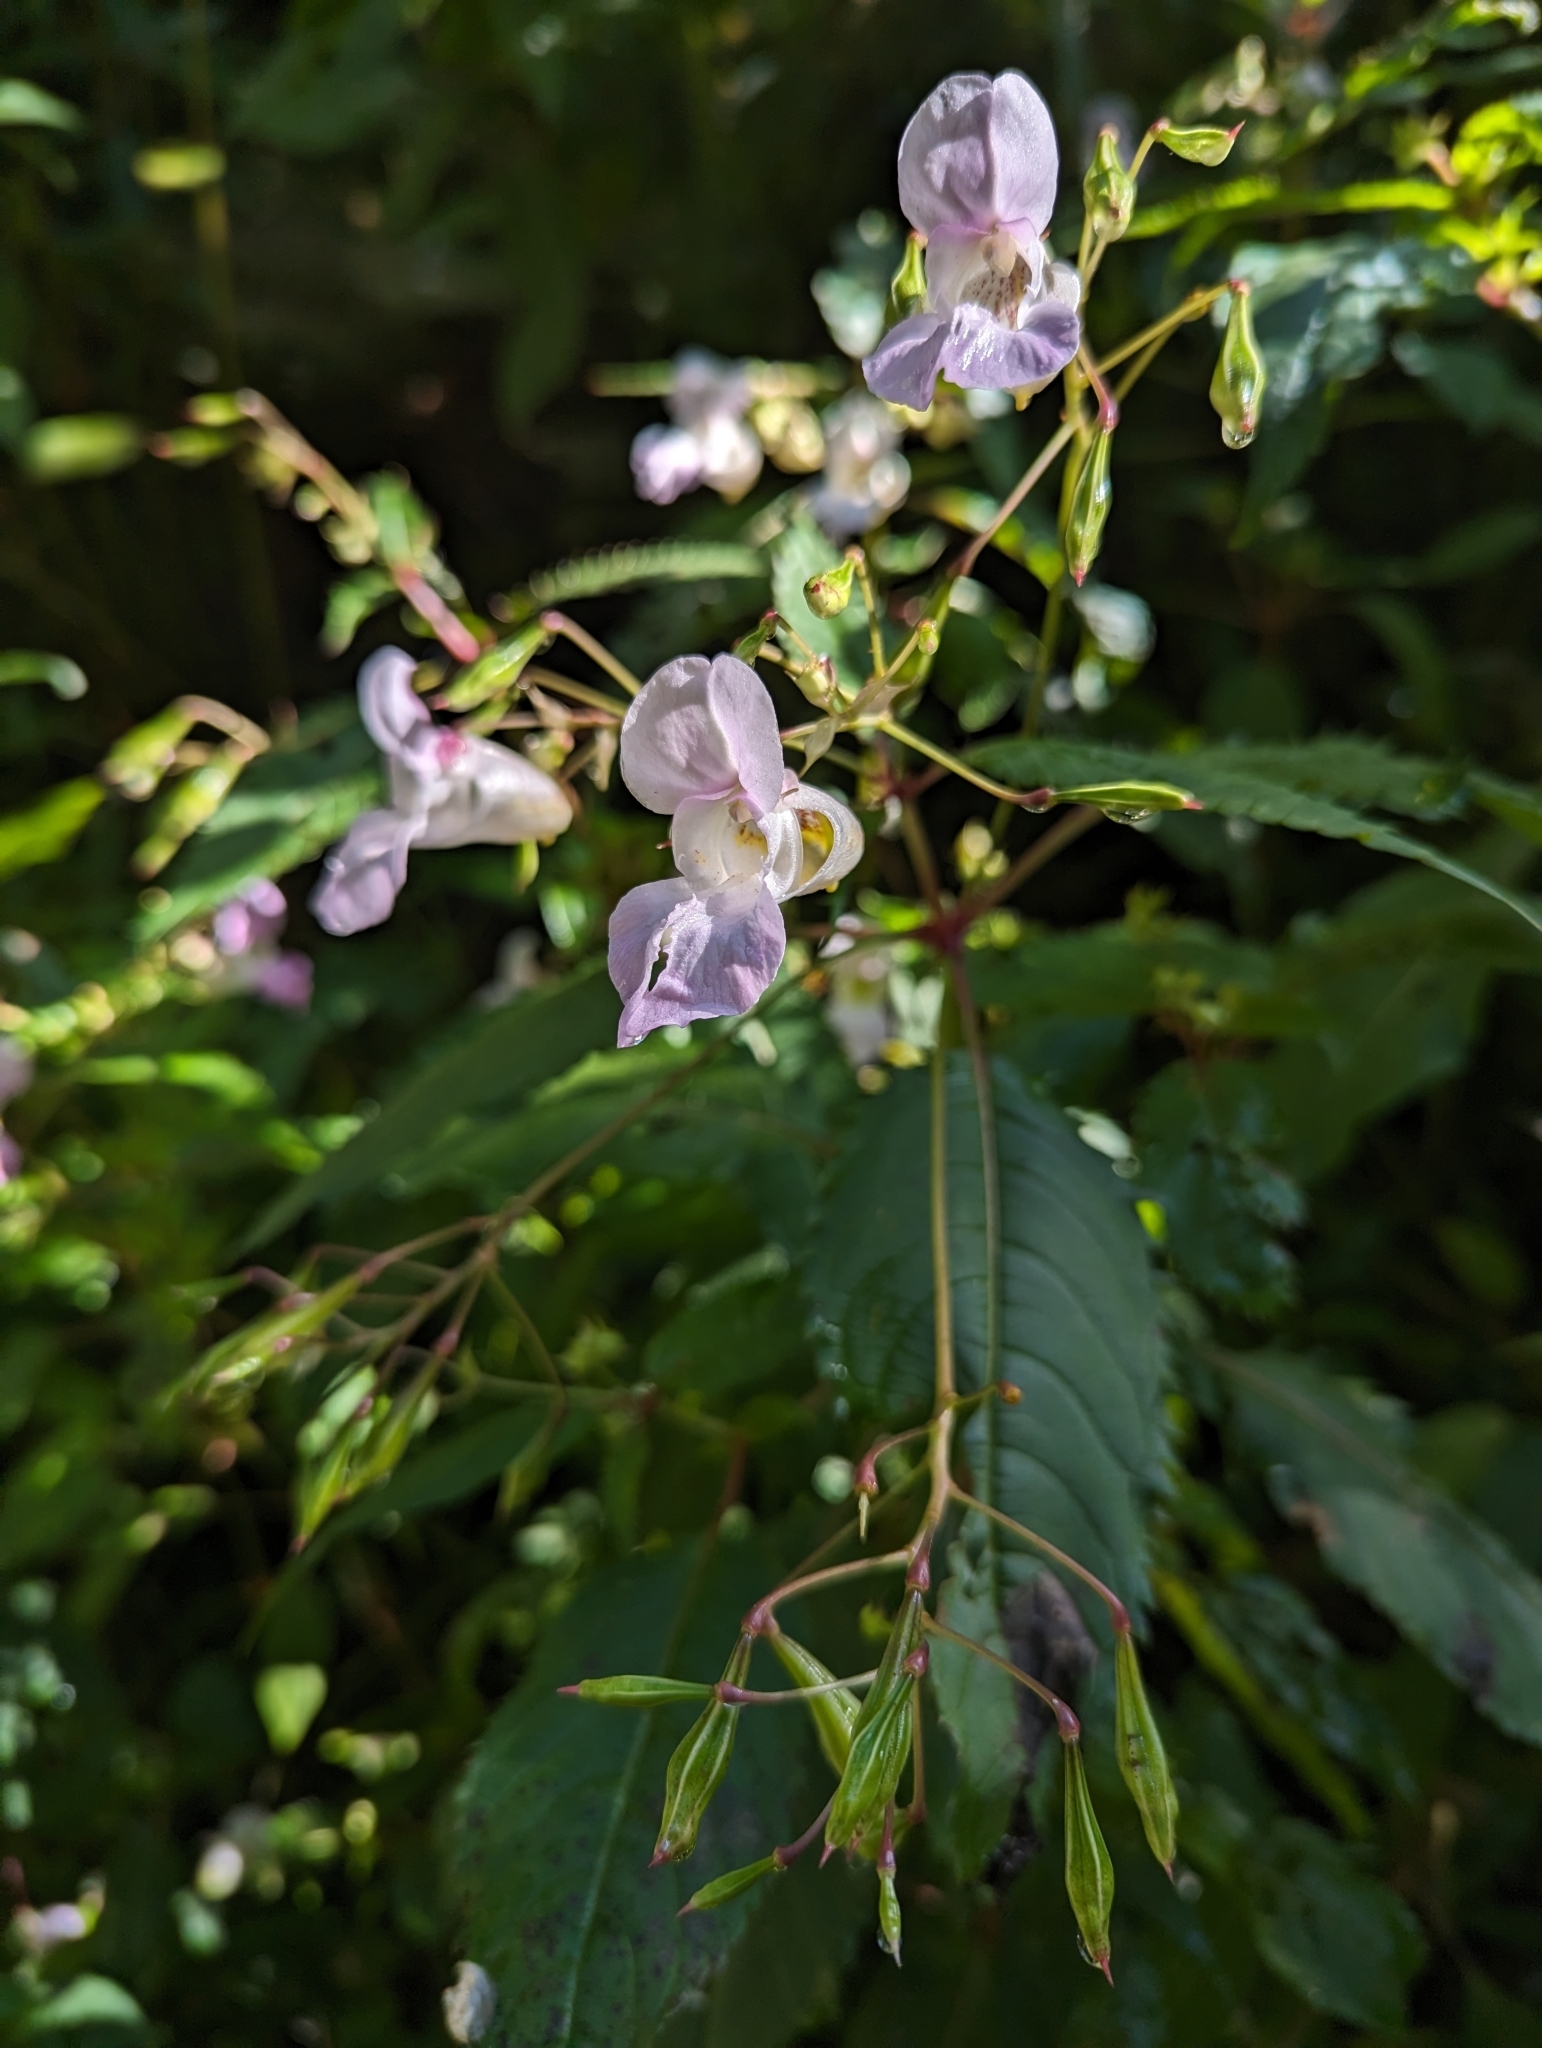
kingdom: Plantae
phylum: Tracheophyta
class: Magnoliopsida
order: Ericales
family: Balsaminaceae
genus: Impatiens
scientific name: Impatiens glandulifera
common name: Himalayan balsam
